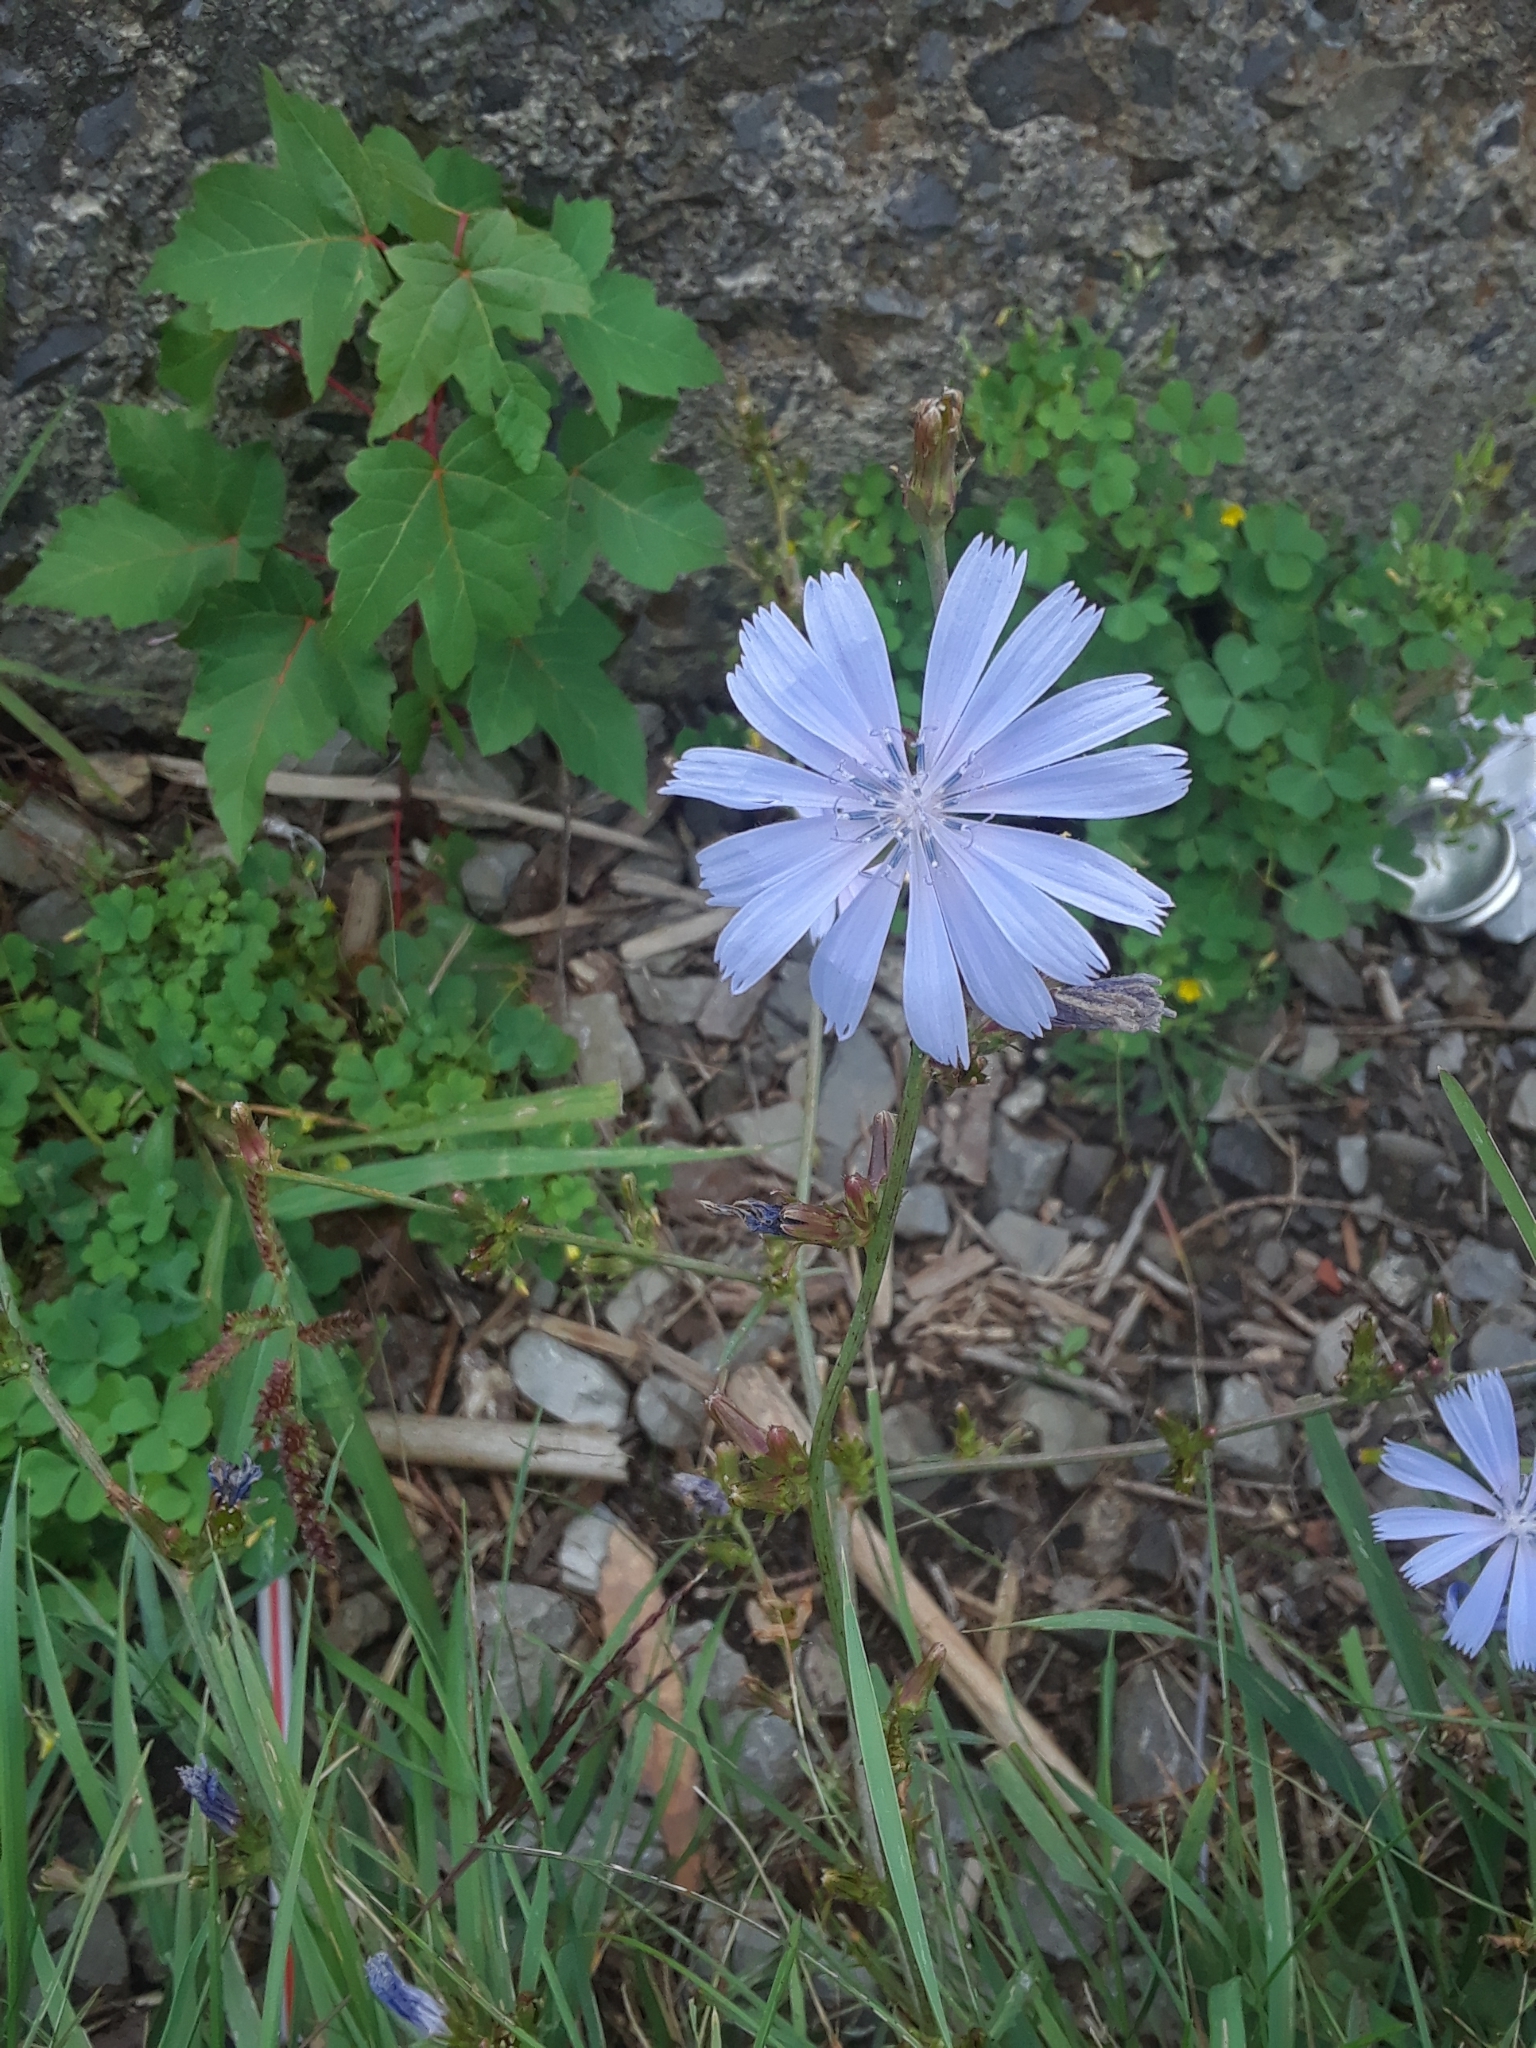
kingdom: Plantae
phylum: Tracheophyta
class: Magnoliopsida
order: Asterales
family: Asteraceae
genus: Cichorium
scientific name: Cichorium intybus
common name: Chicory
